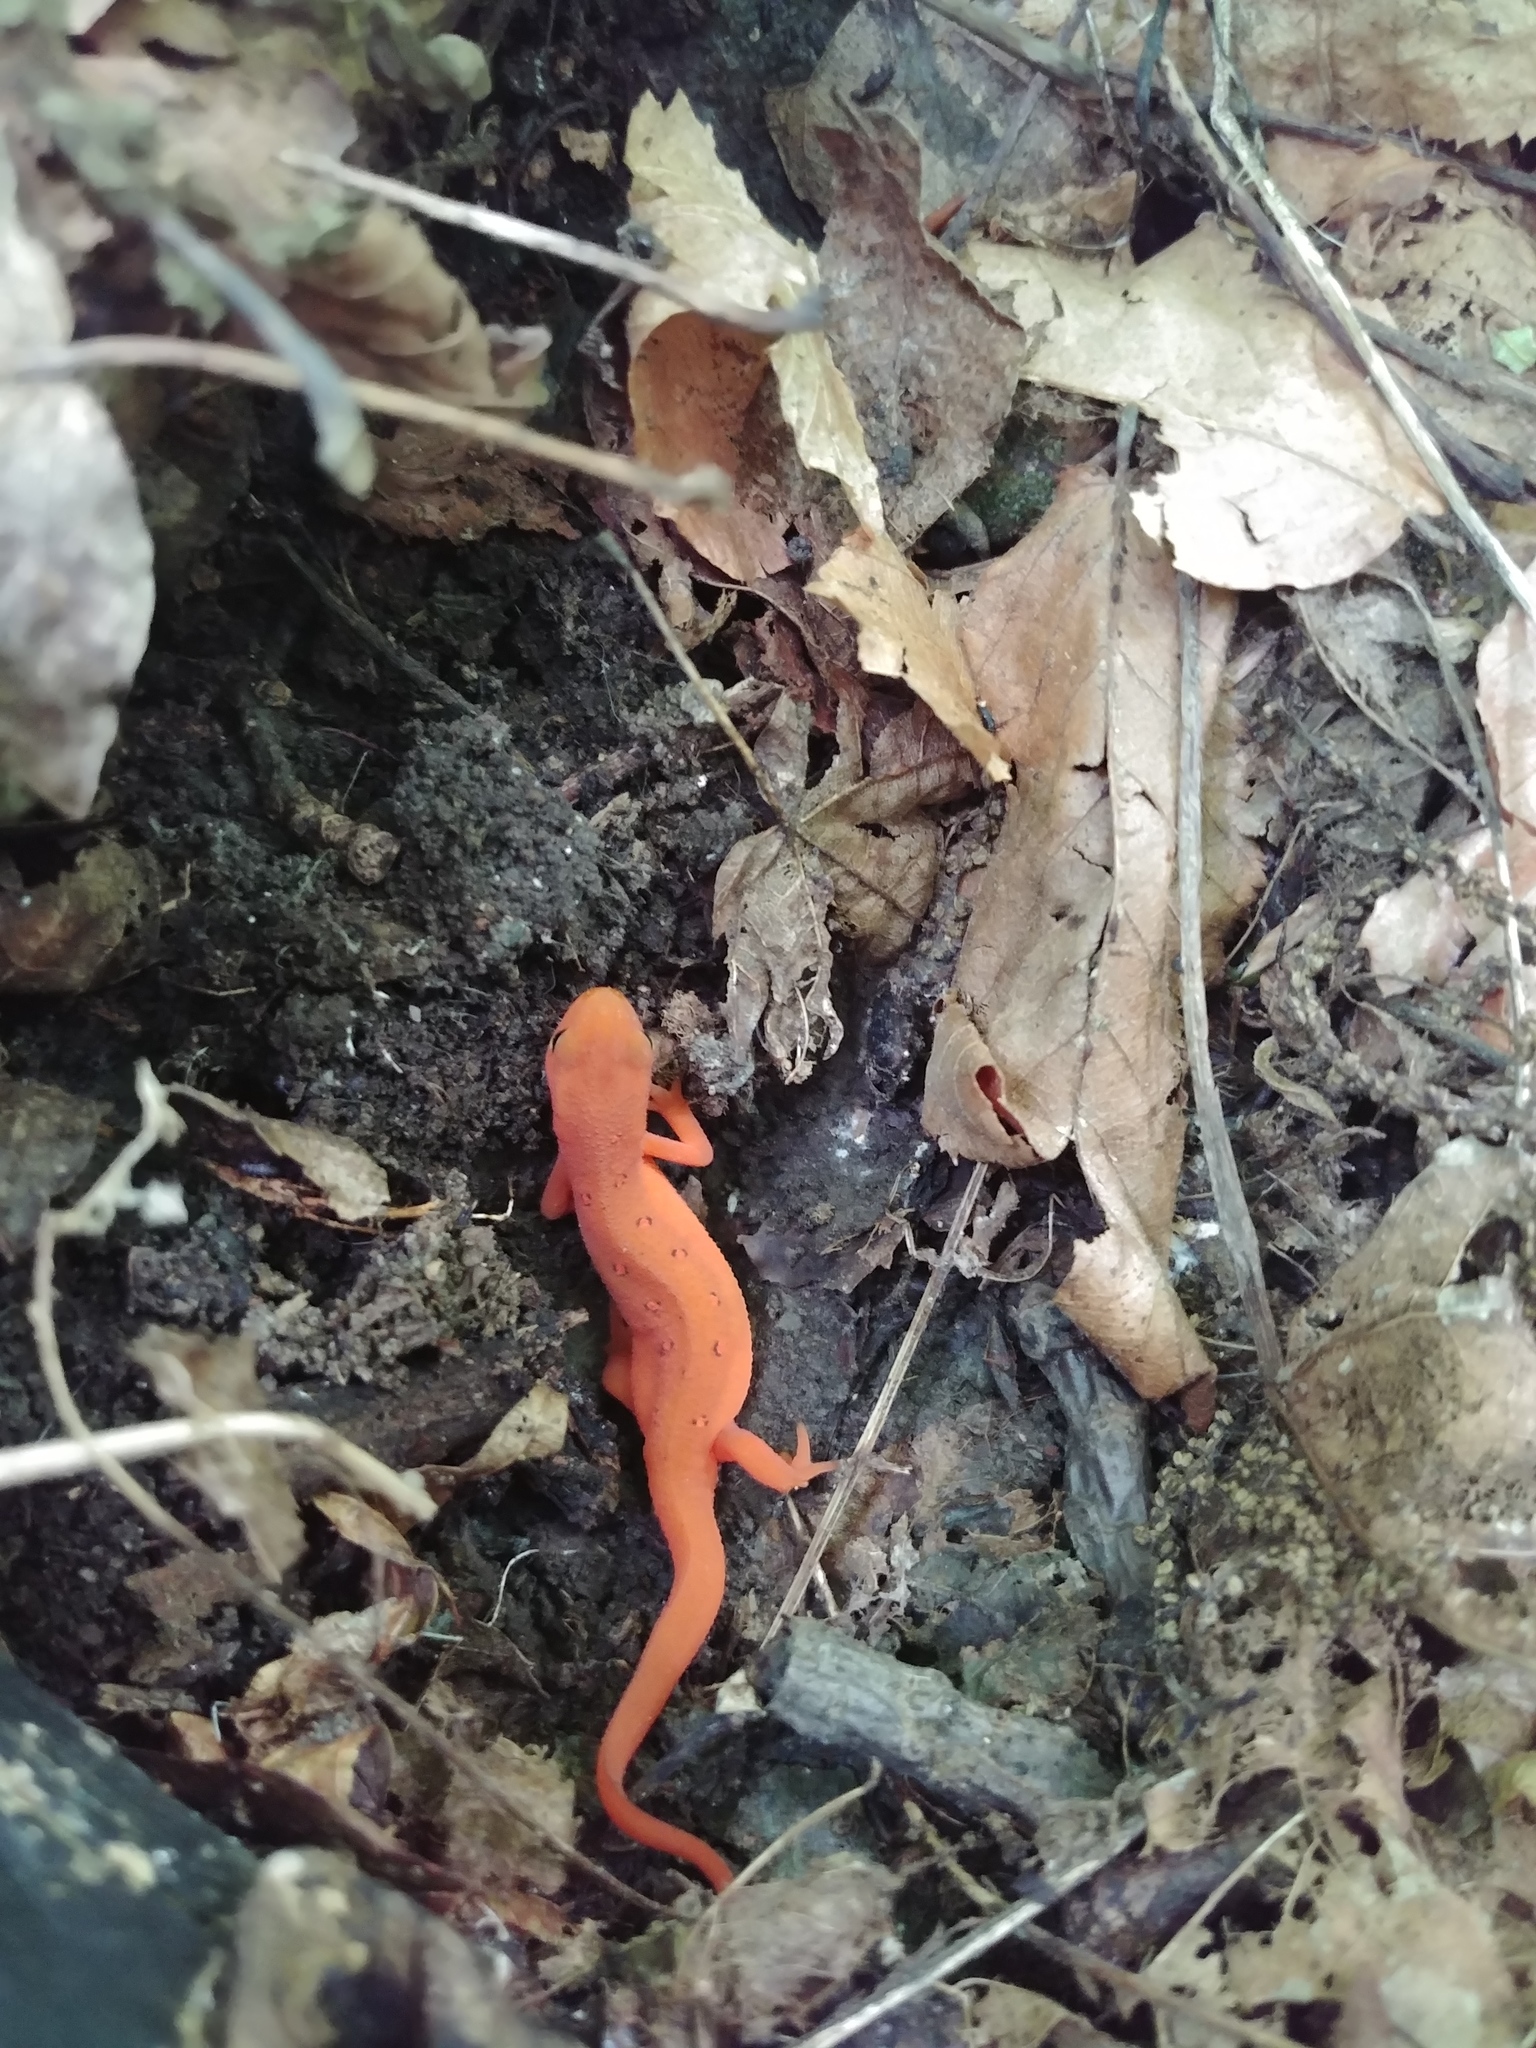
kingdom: Animalia
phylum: Chordata
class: Amphibia
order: Caudata
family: Salamandridae
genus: Notophthalmus
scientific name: Notophthalmus viridescens
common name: Eastern newt
